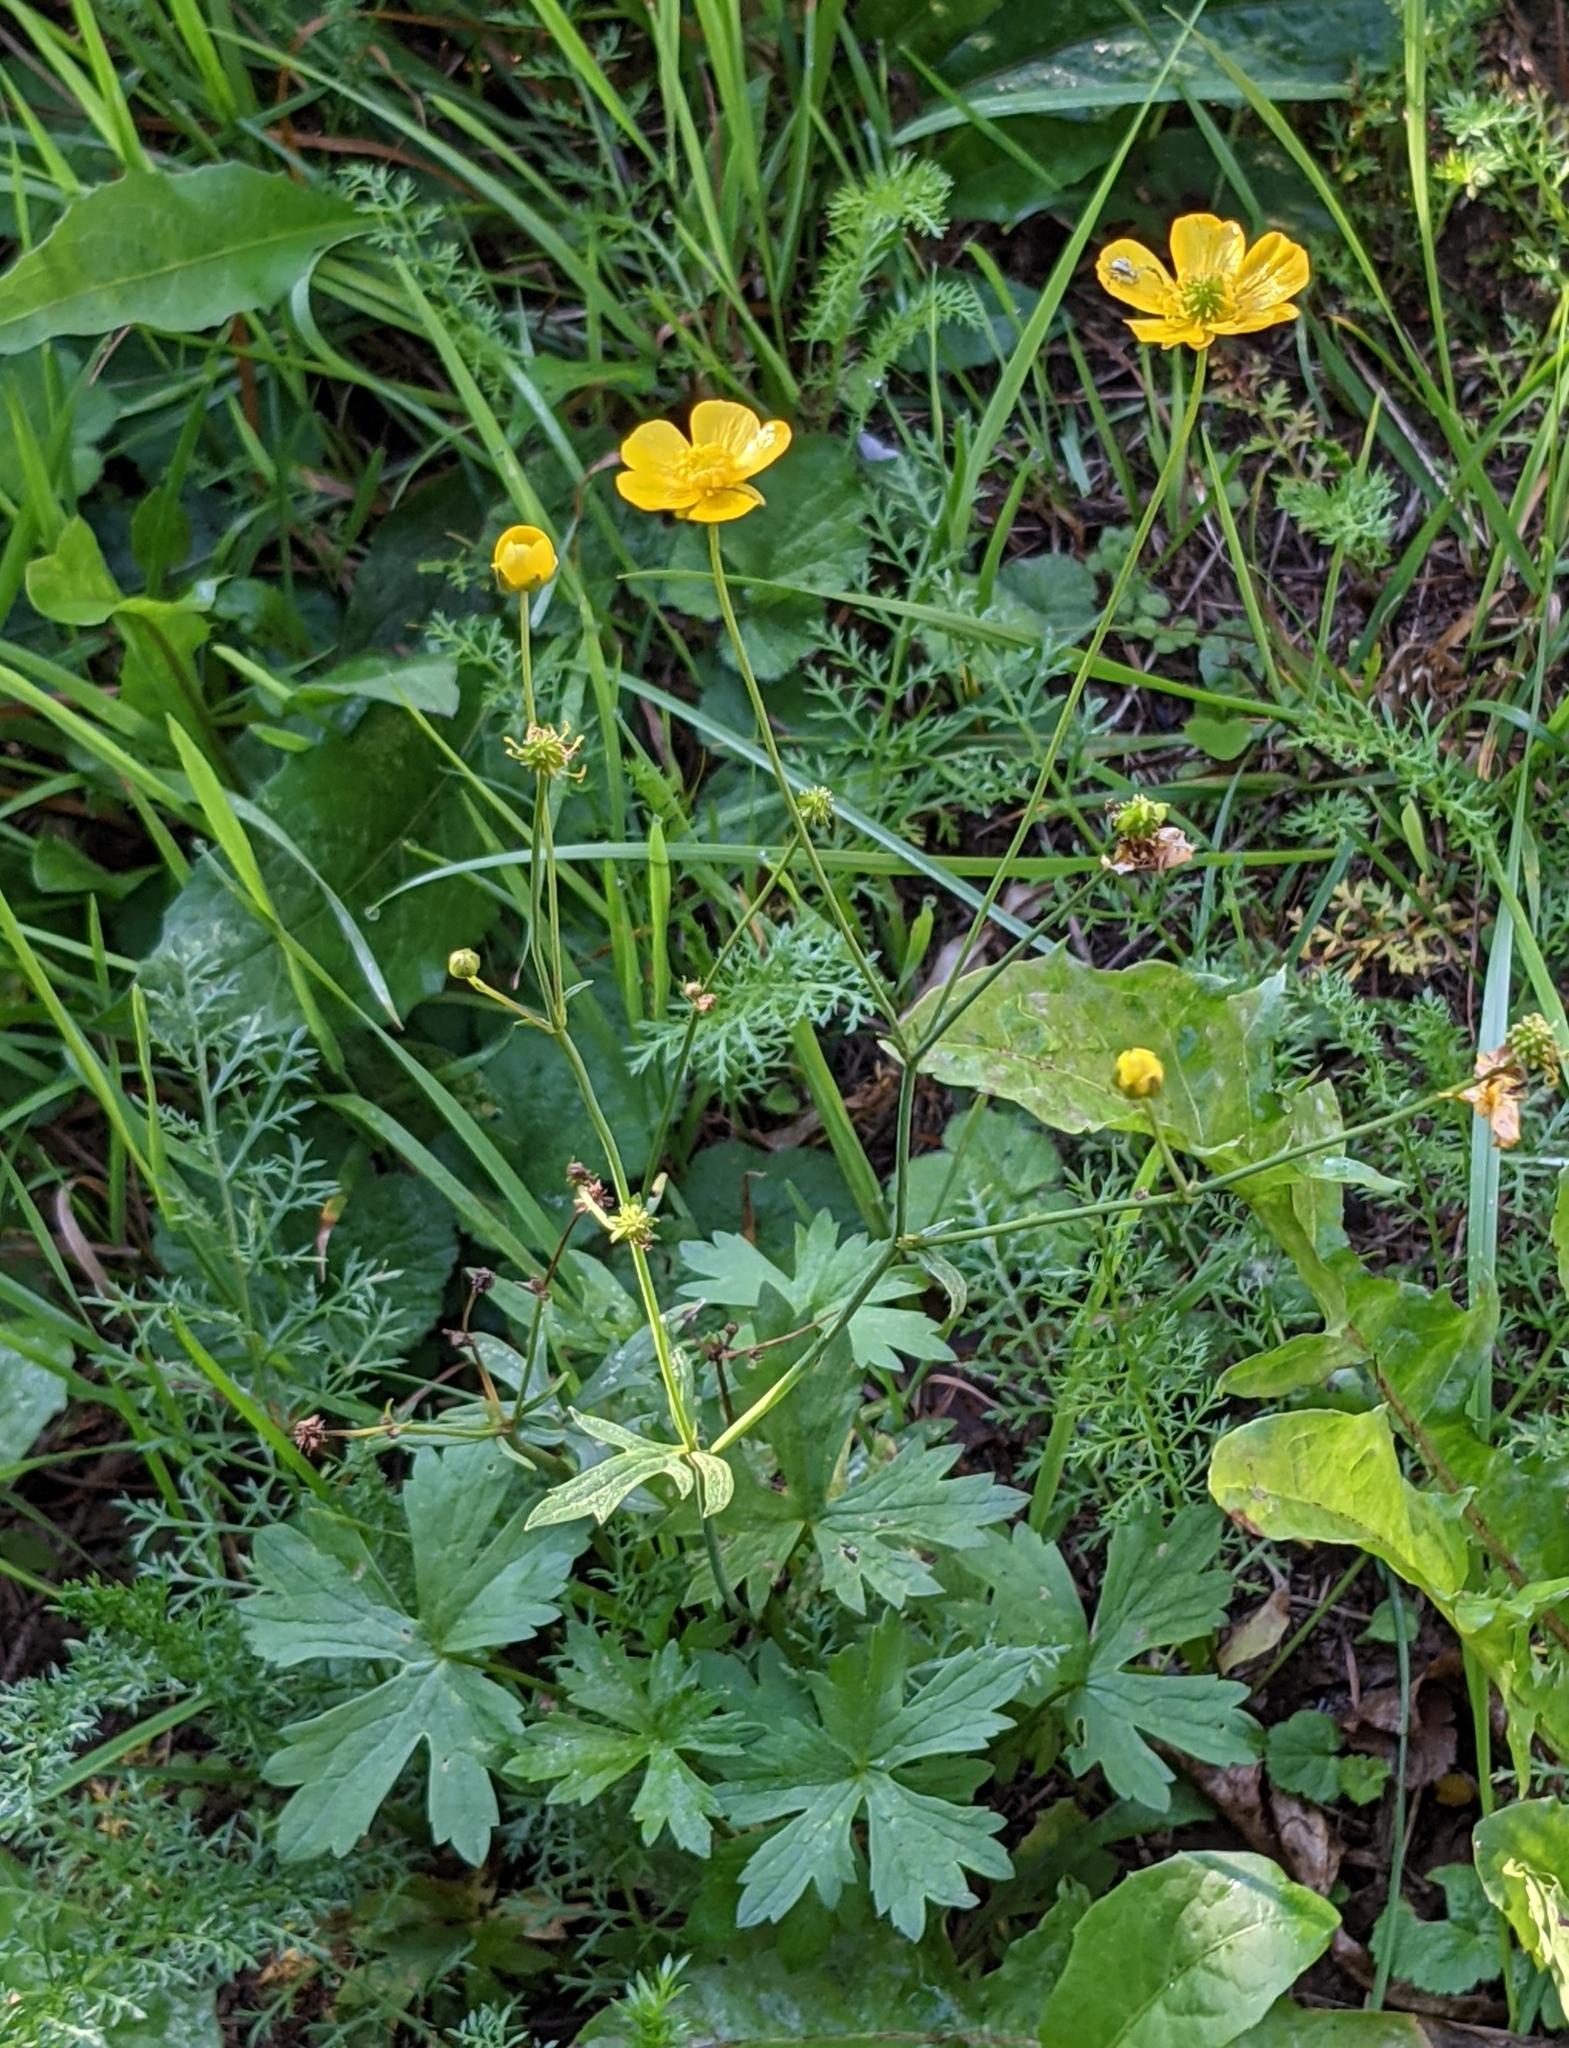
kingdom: Plantae
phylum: Tracheophyta
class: Magnoliopsida
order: Ranunculales
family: Ranunculaceae
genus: Ranunculus
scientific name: Ranunculus acris
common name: Meadow buttercup
